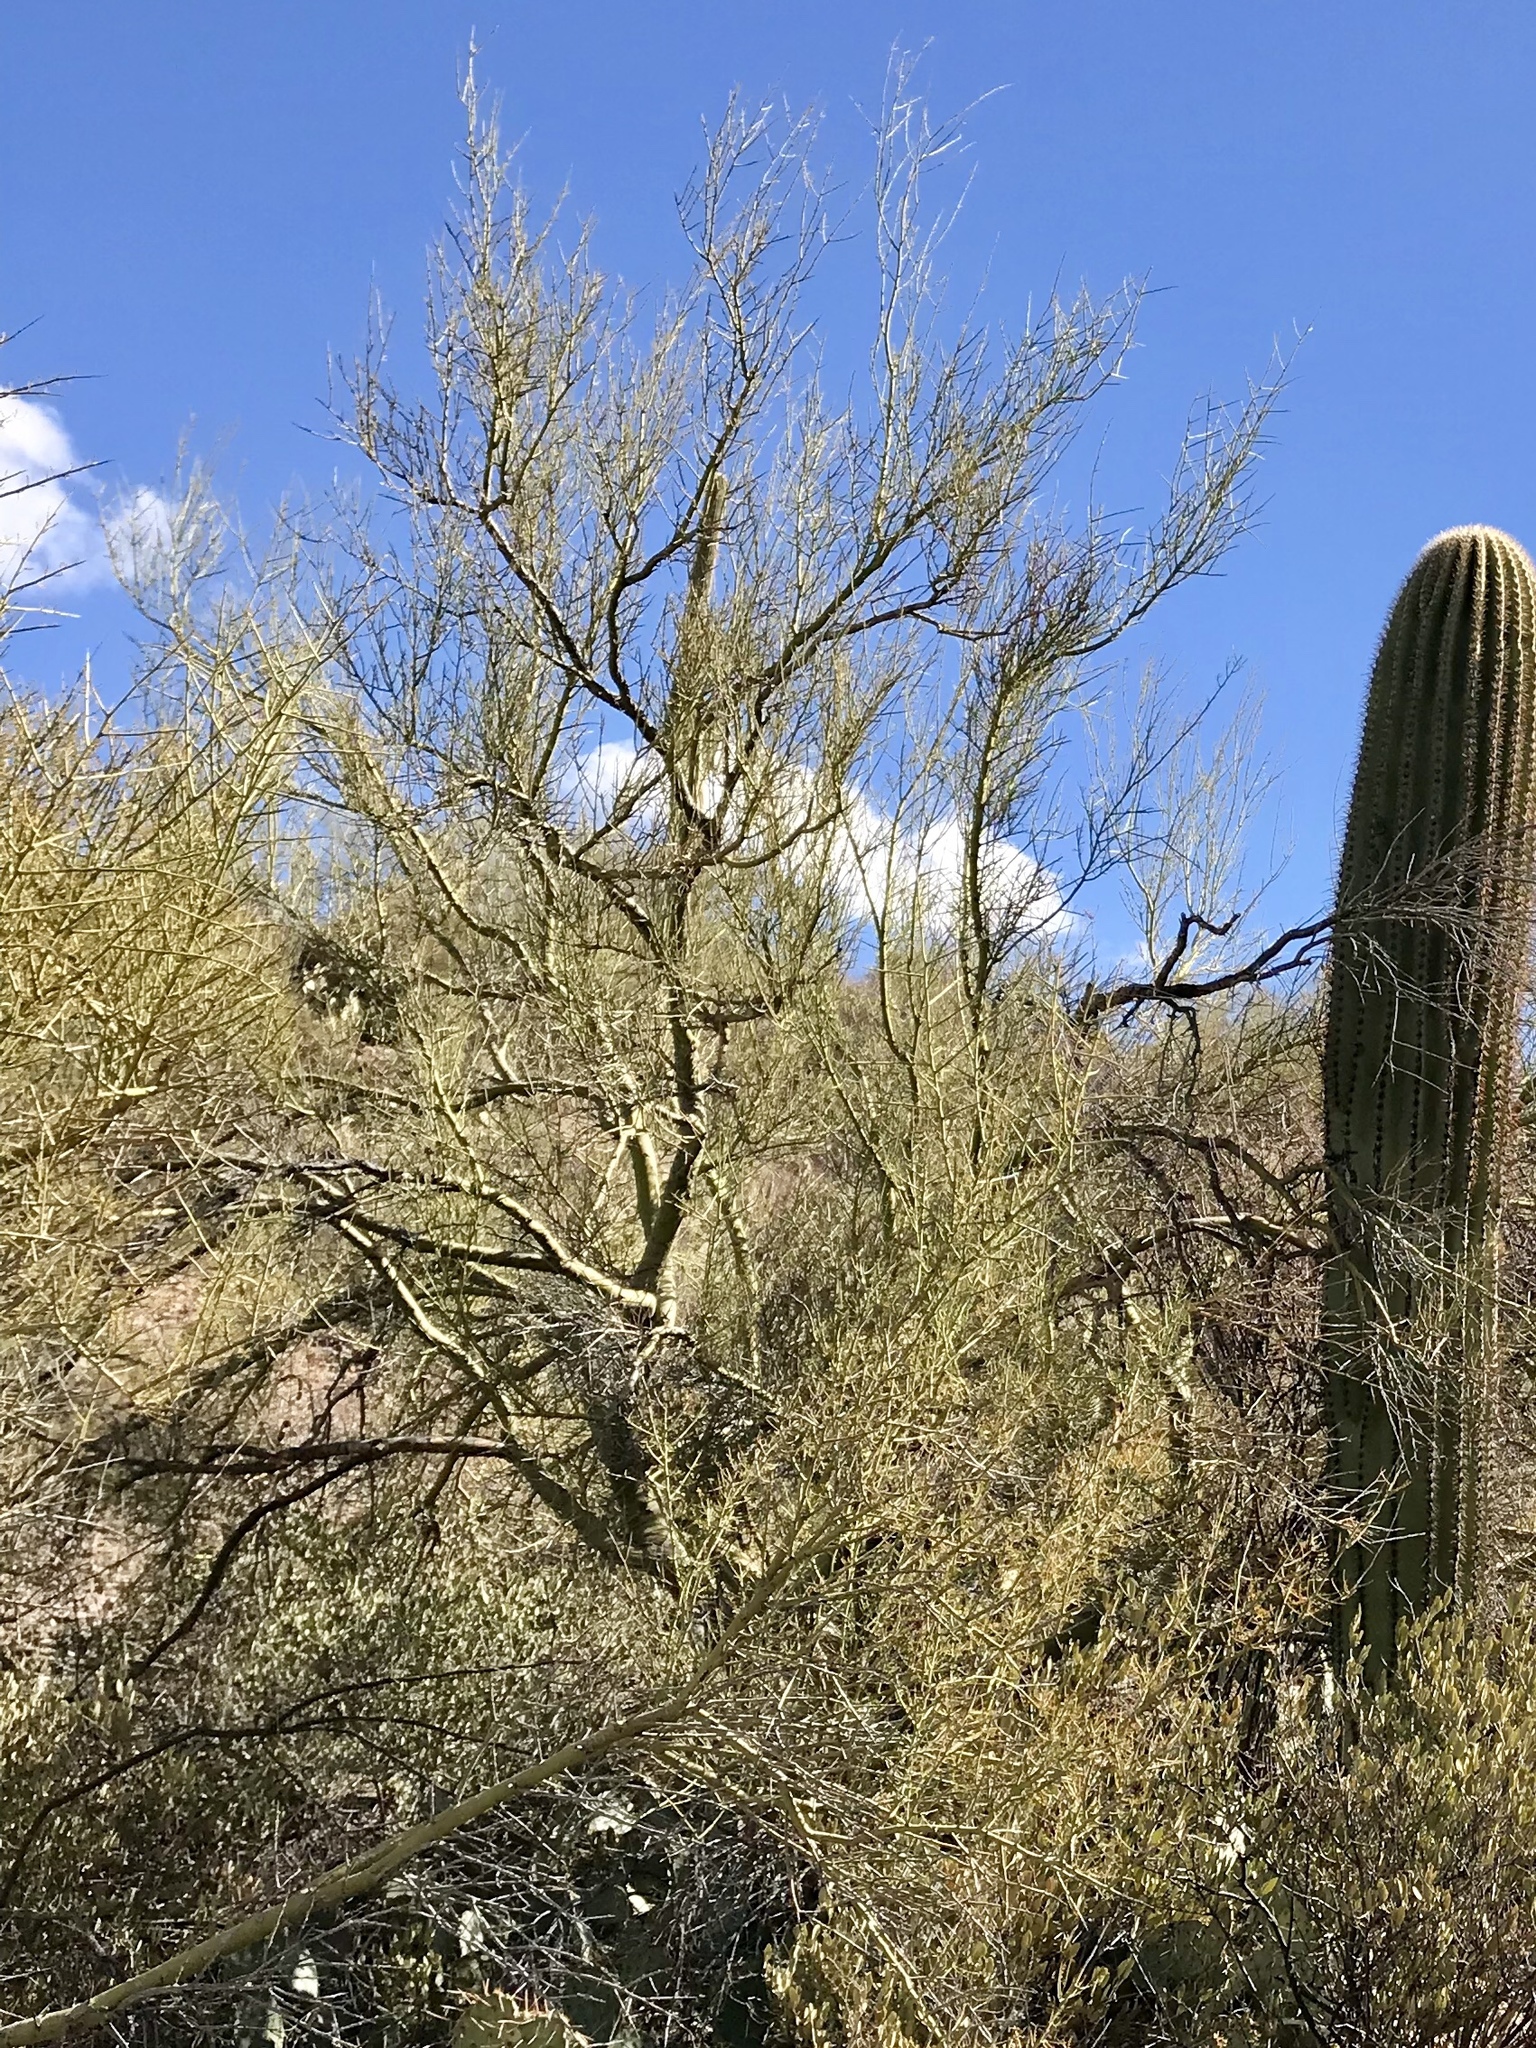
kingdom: Plantae
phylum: Tracheophyta
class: Magnoliopsida
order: Fabales
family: Fabaceae
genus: Parkinsonia
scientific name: Parkinsonia microphylla
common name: Yellow paloverde
